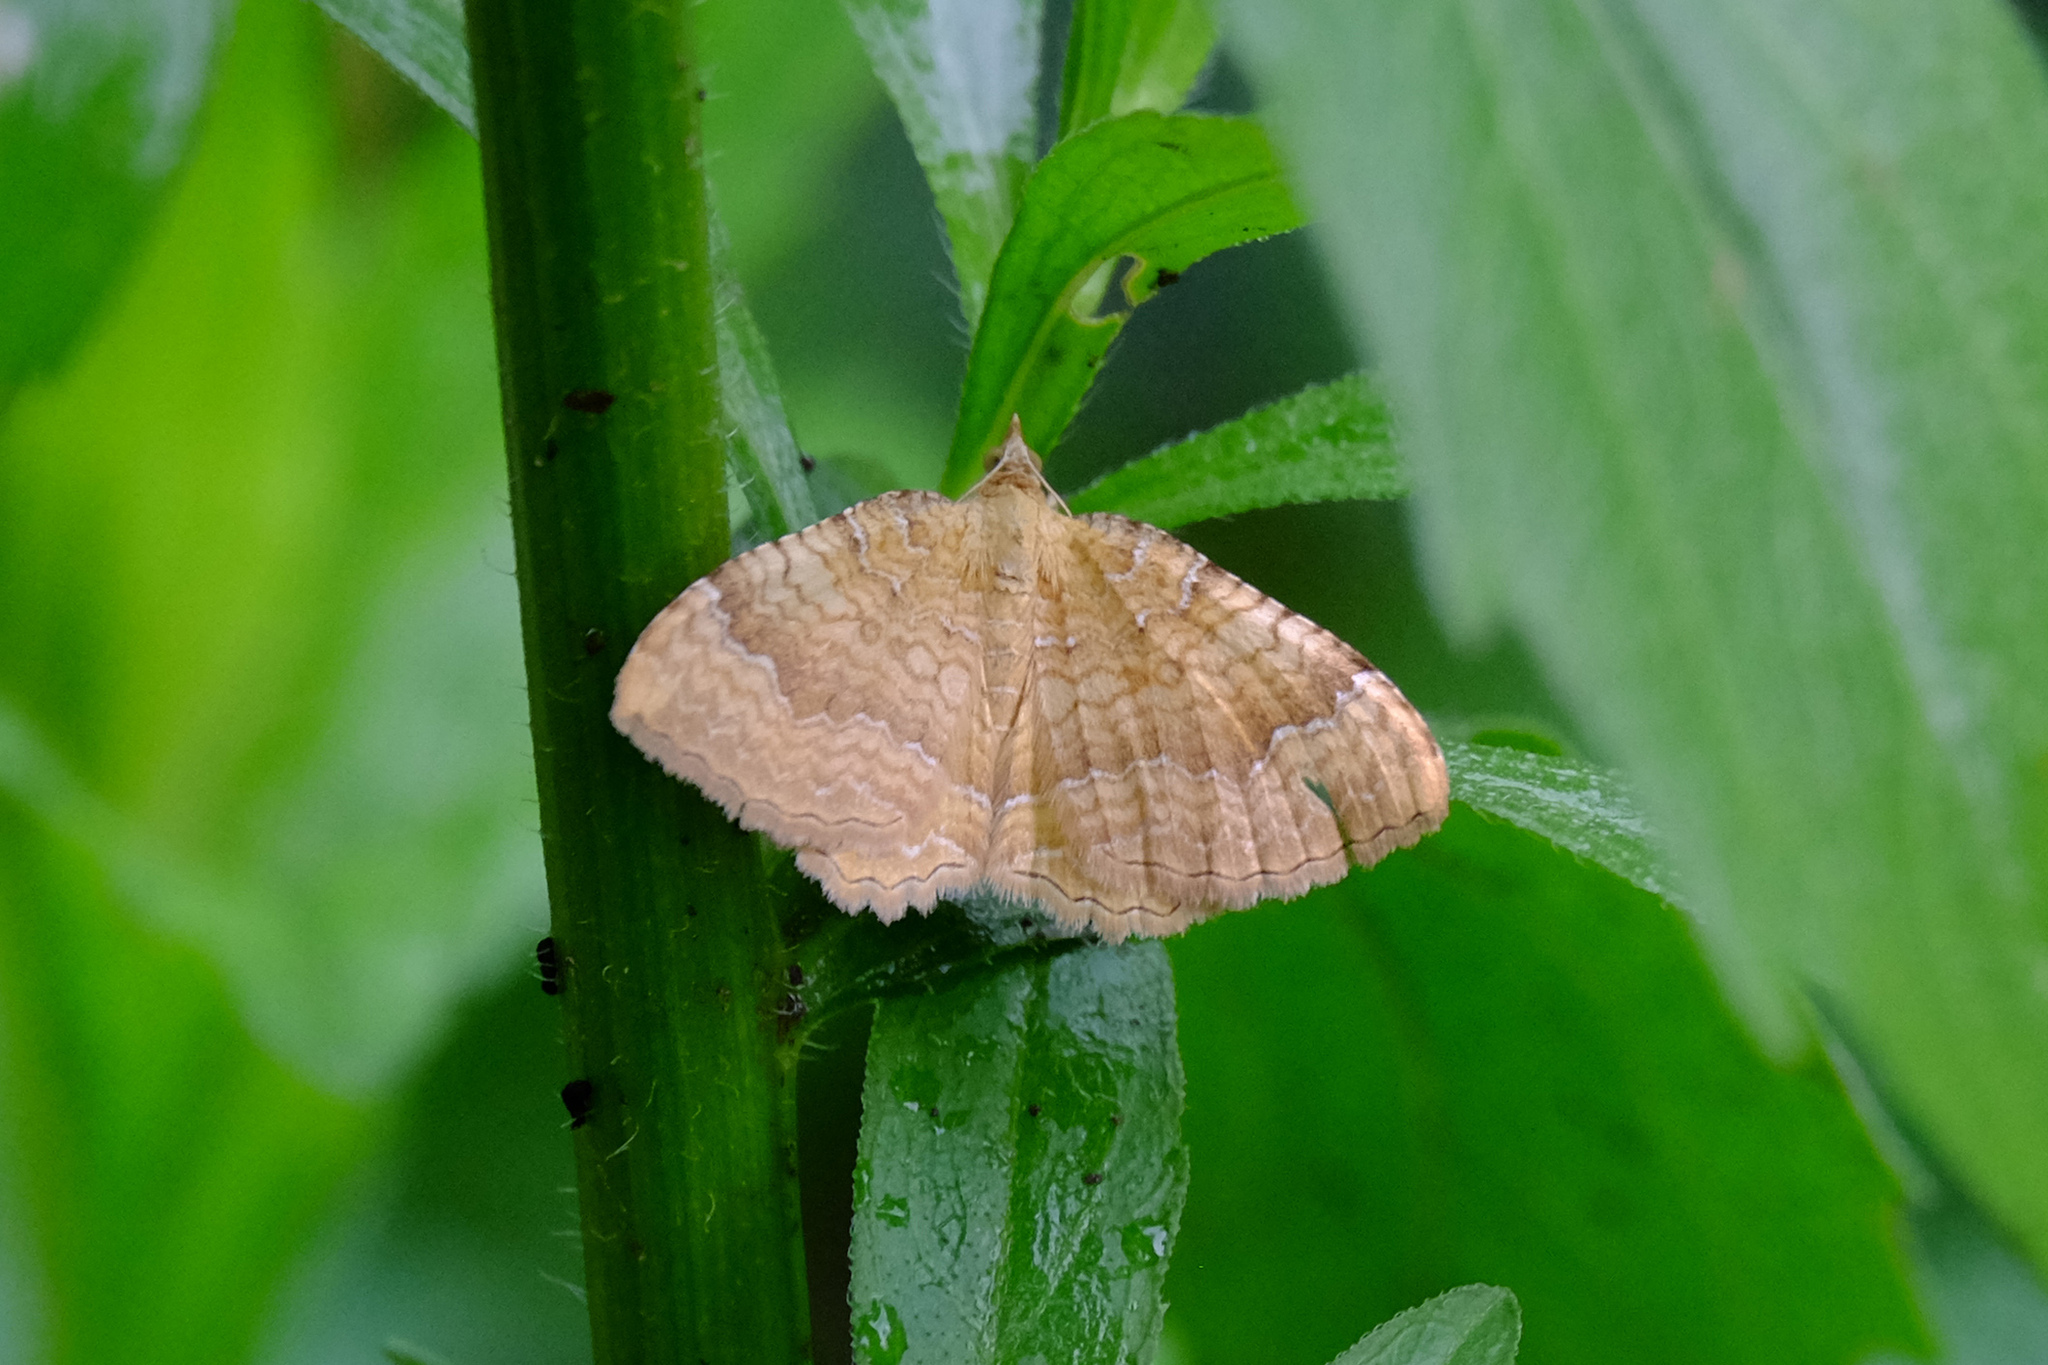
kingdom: Animalia
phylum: Arthropoda
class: Insecta
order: Lepidoptera
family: Geometridae
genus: Camptogramma
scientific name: Camptogramma bilineata
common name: Yellow shell
